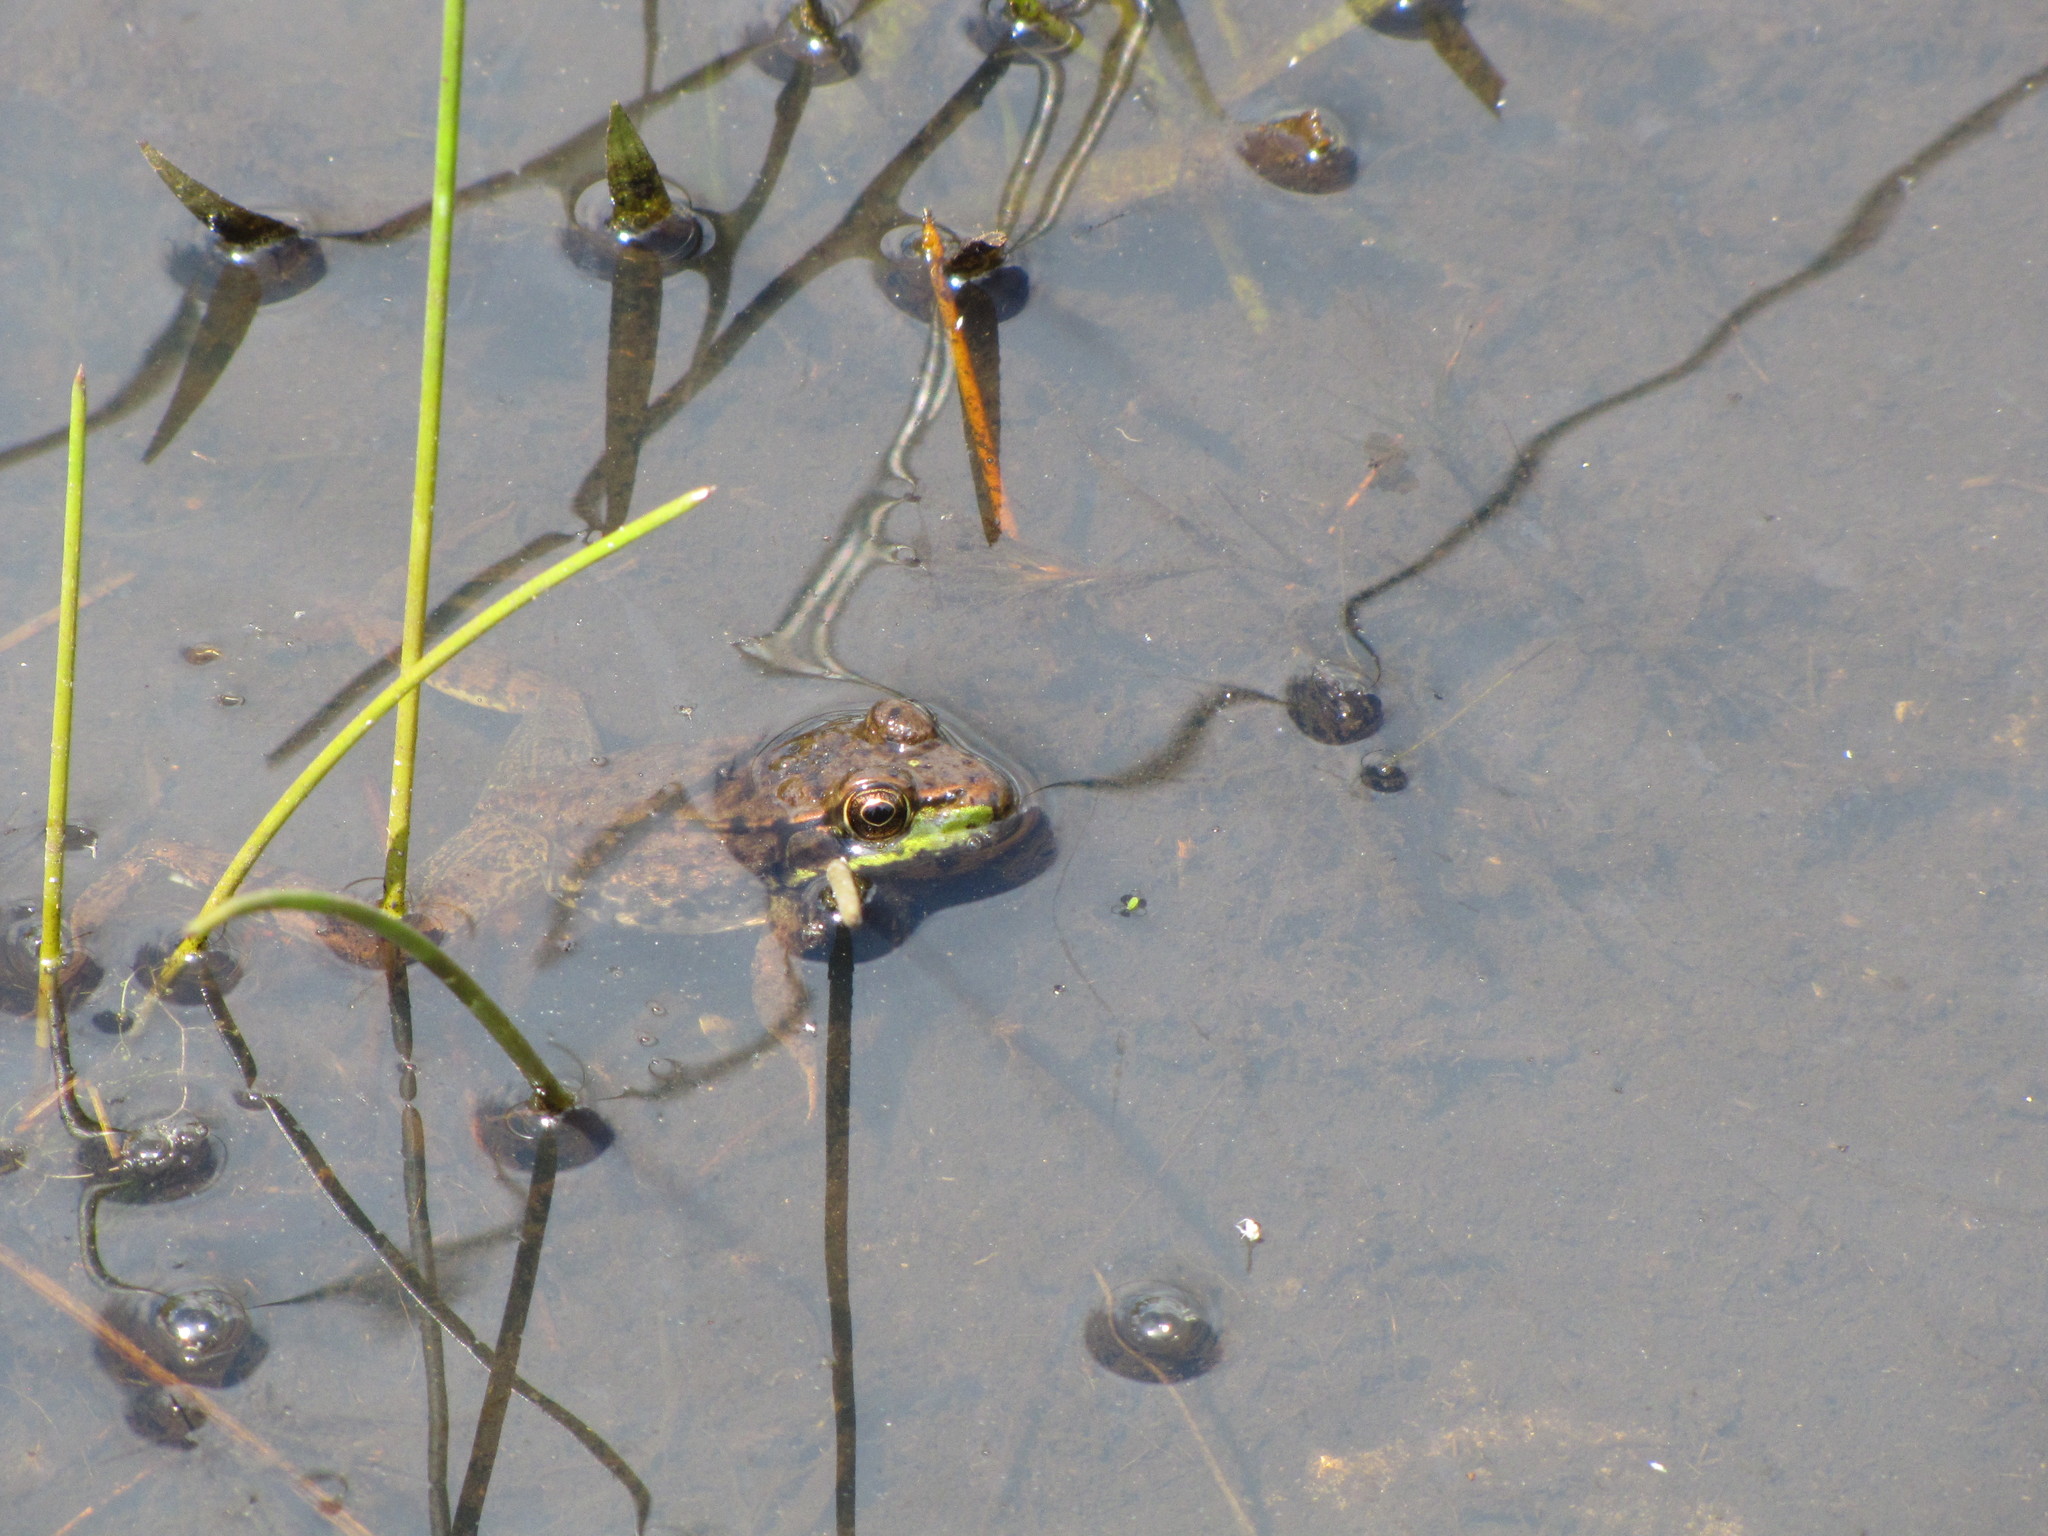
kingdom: Animalia
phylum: Chordata
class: Amphibia
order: Anura
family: Ranidae
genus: Lithobates
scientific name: Lithobates clamitans
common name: Green frog
